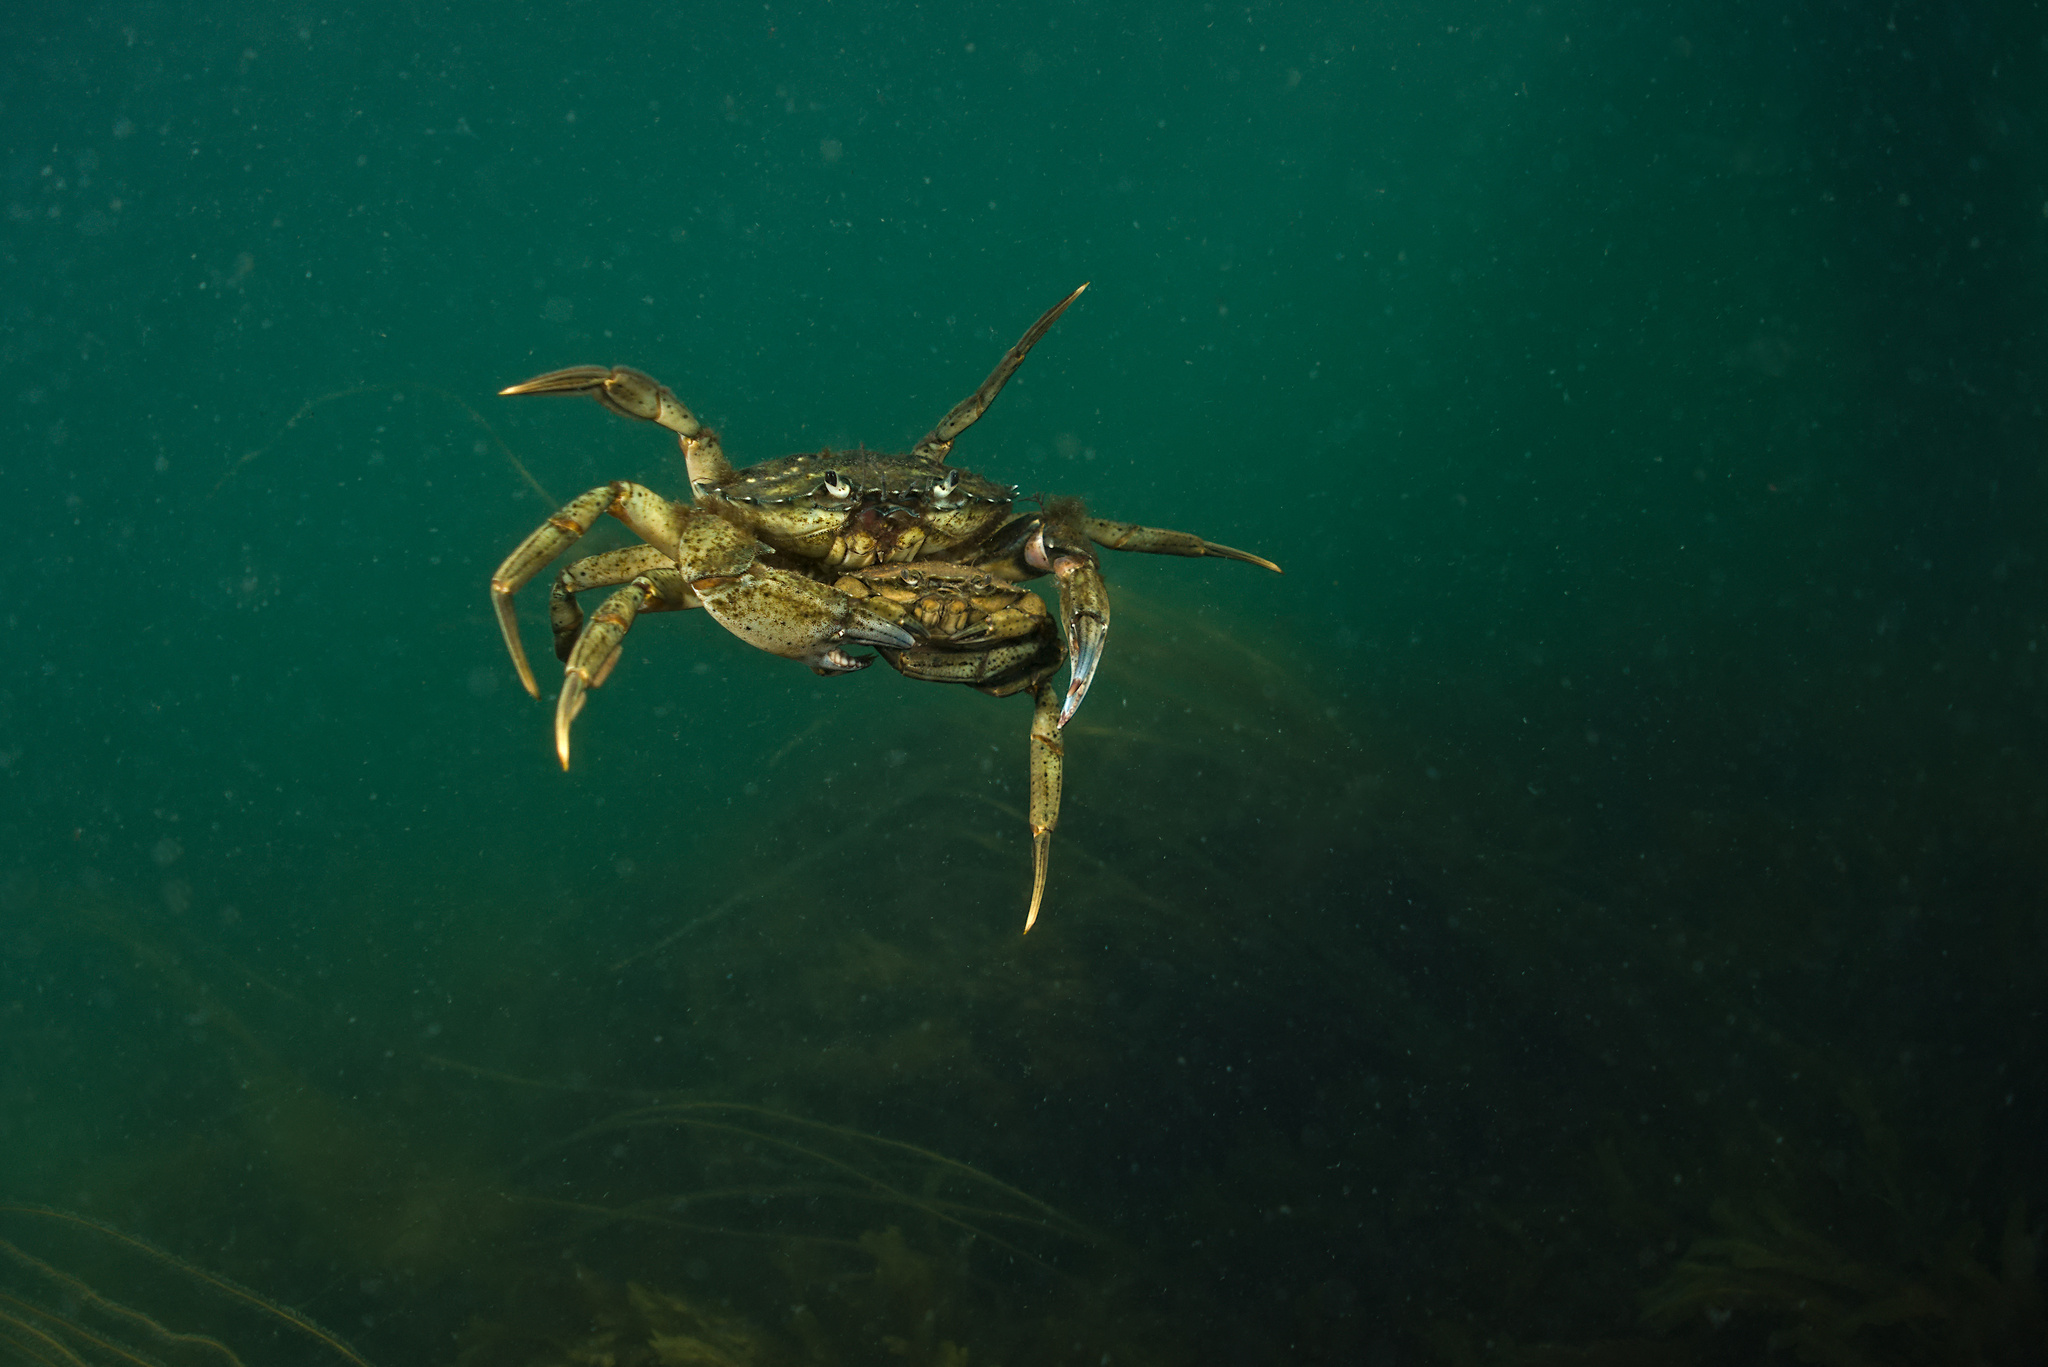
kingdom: Animalia
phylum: Arthropoda
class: Malacostraca
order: Decapoda
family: Carcinidae
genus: Carcinus
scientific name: Carcinus maenas
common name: European green crab
